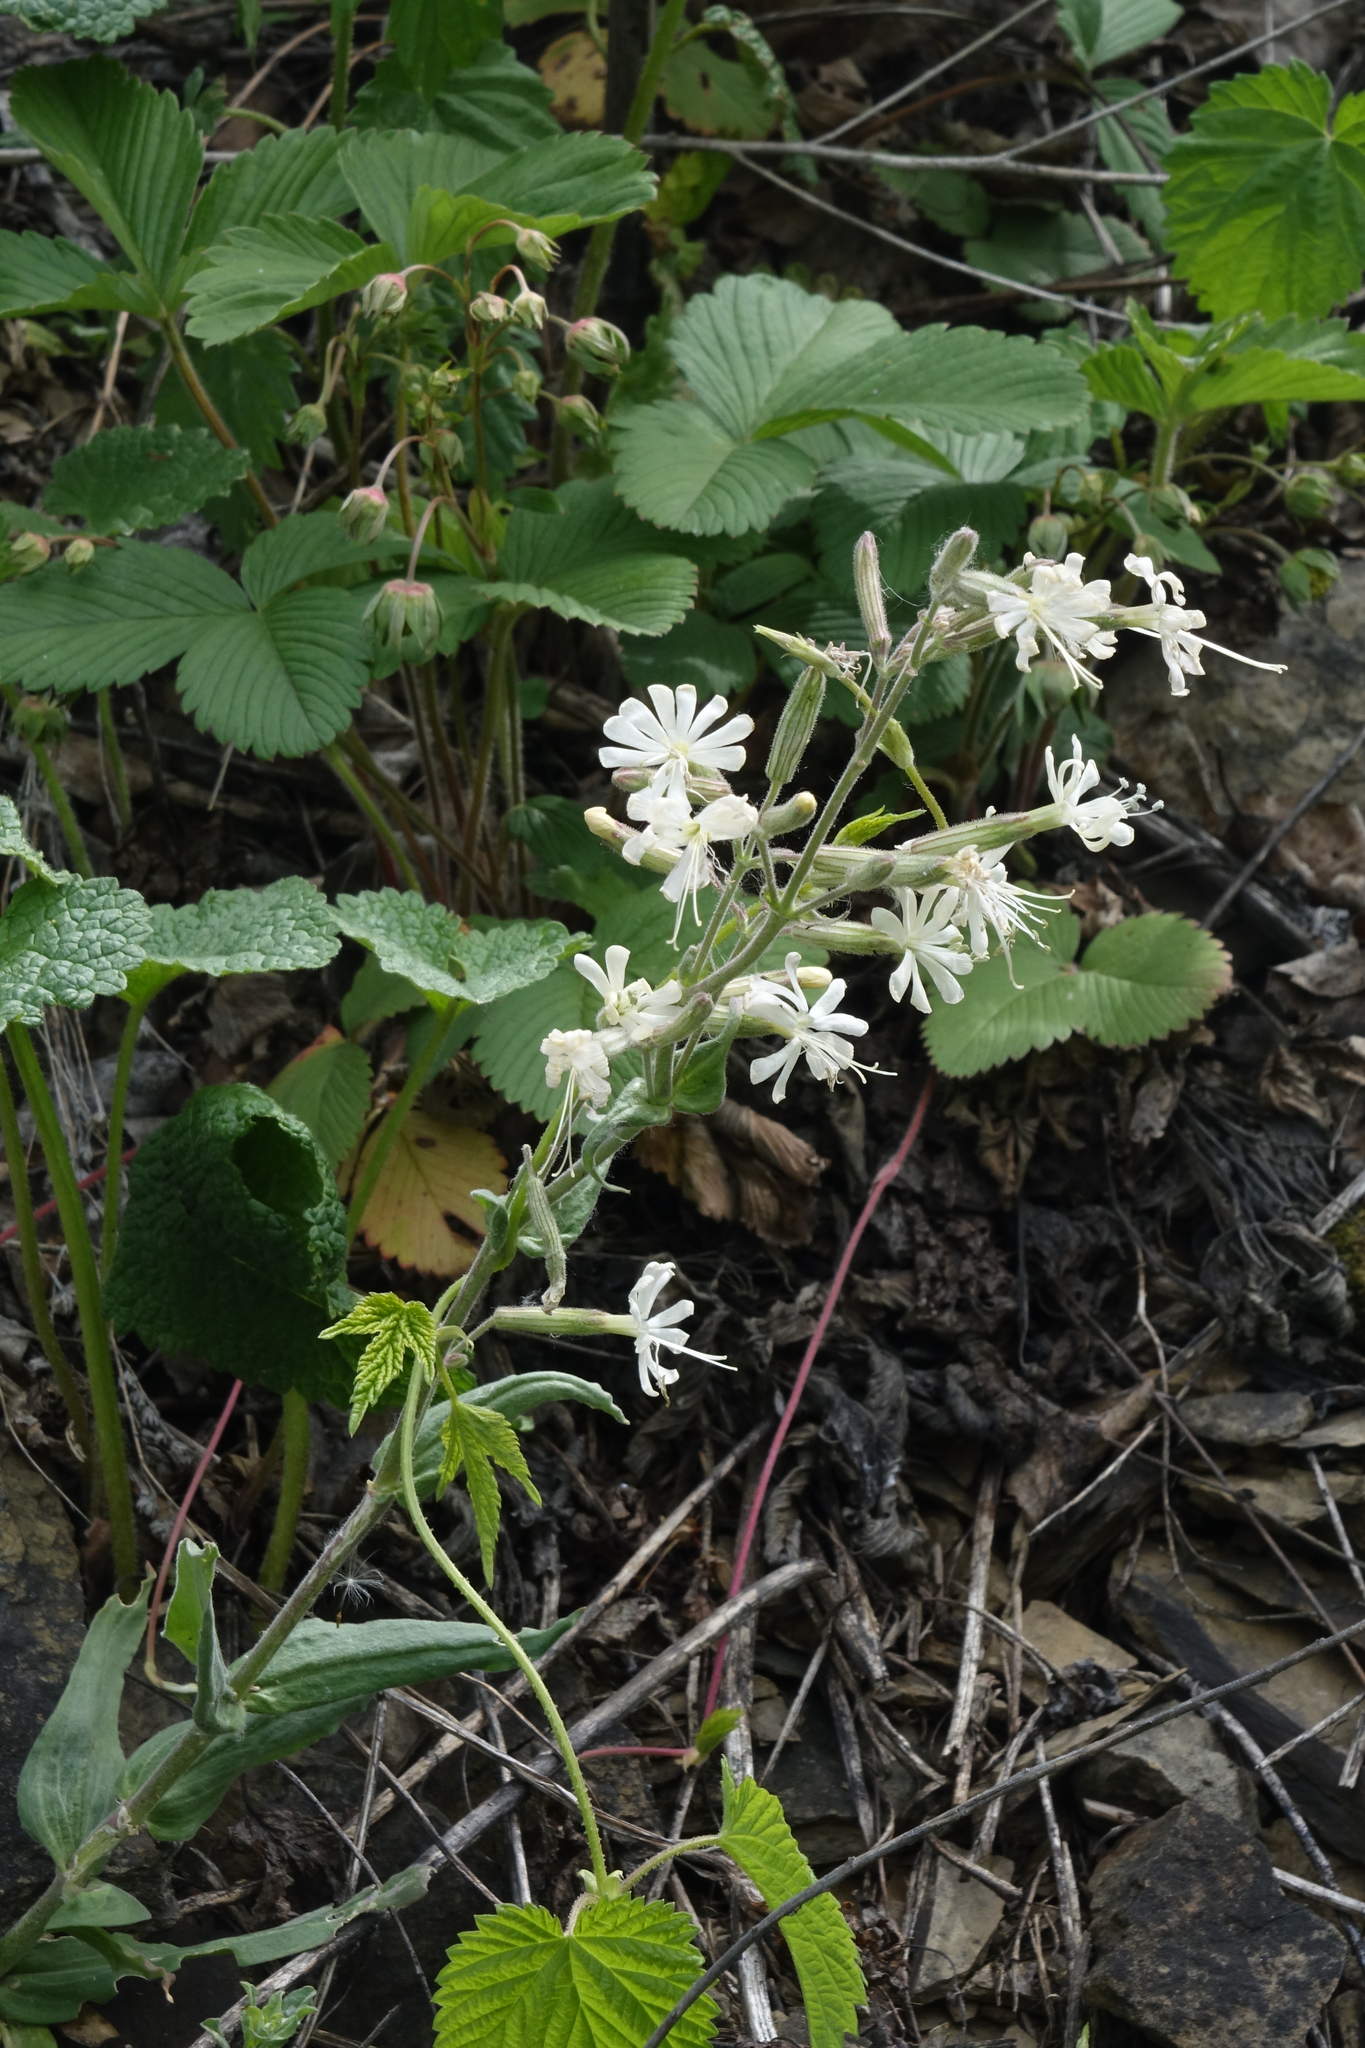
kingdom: Plantae
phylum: Tracheophyta
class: Magnoliopsida
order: Caryophyllales
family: Caryophyllaceae
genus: Silene
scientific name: Silene viscosa
